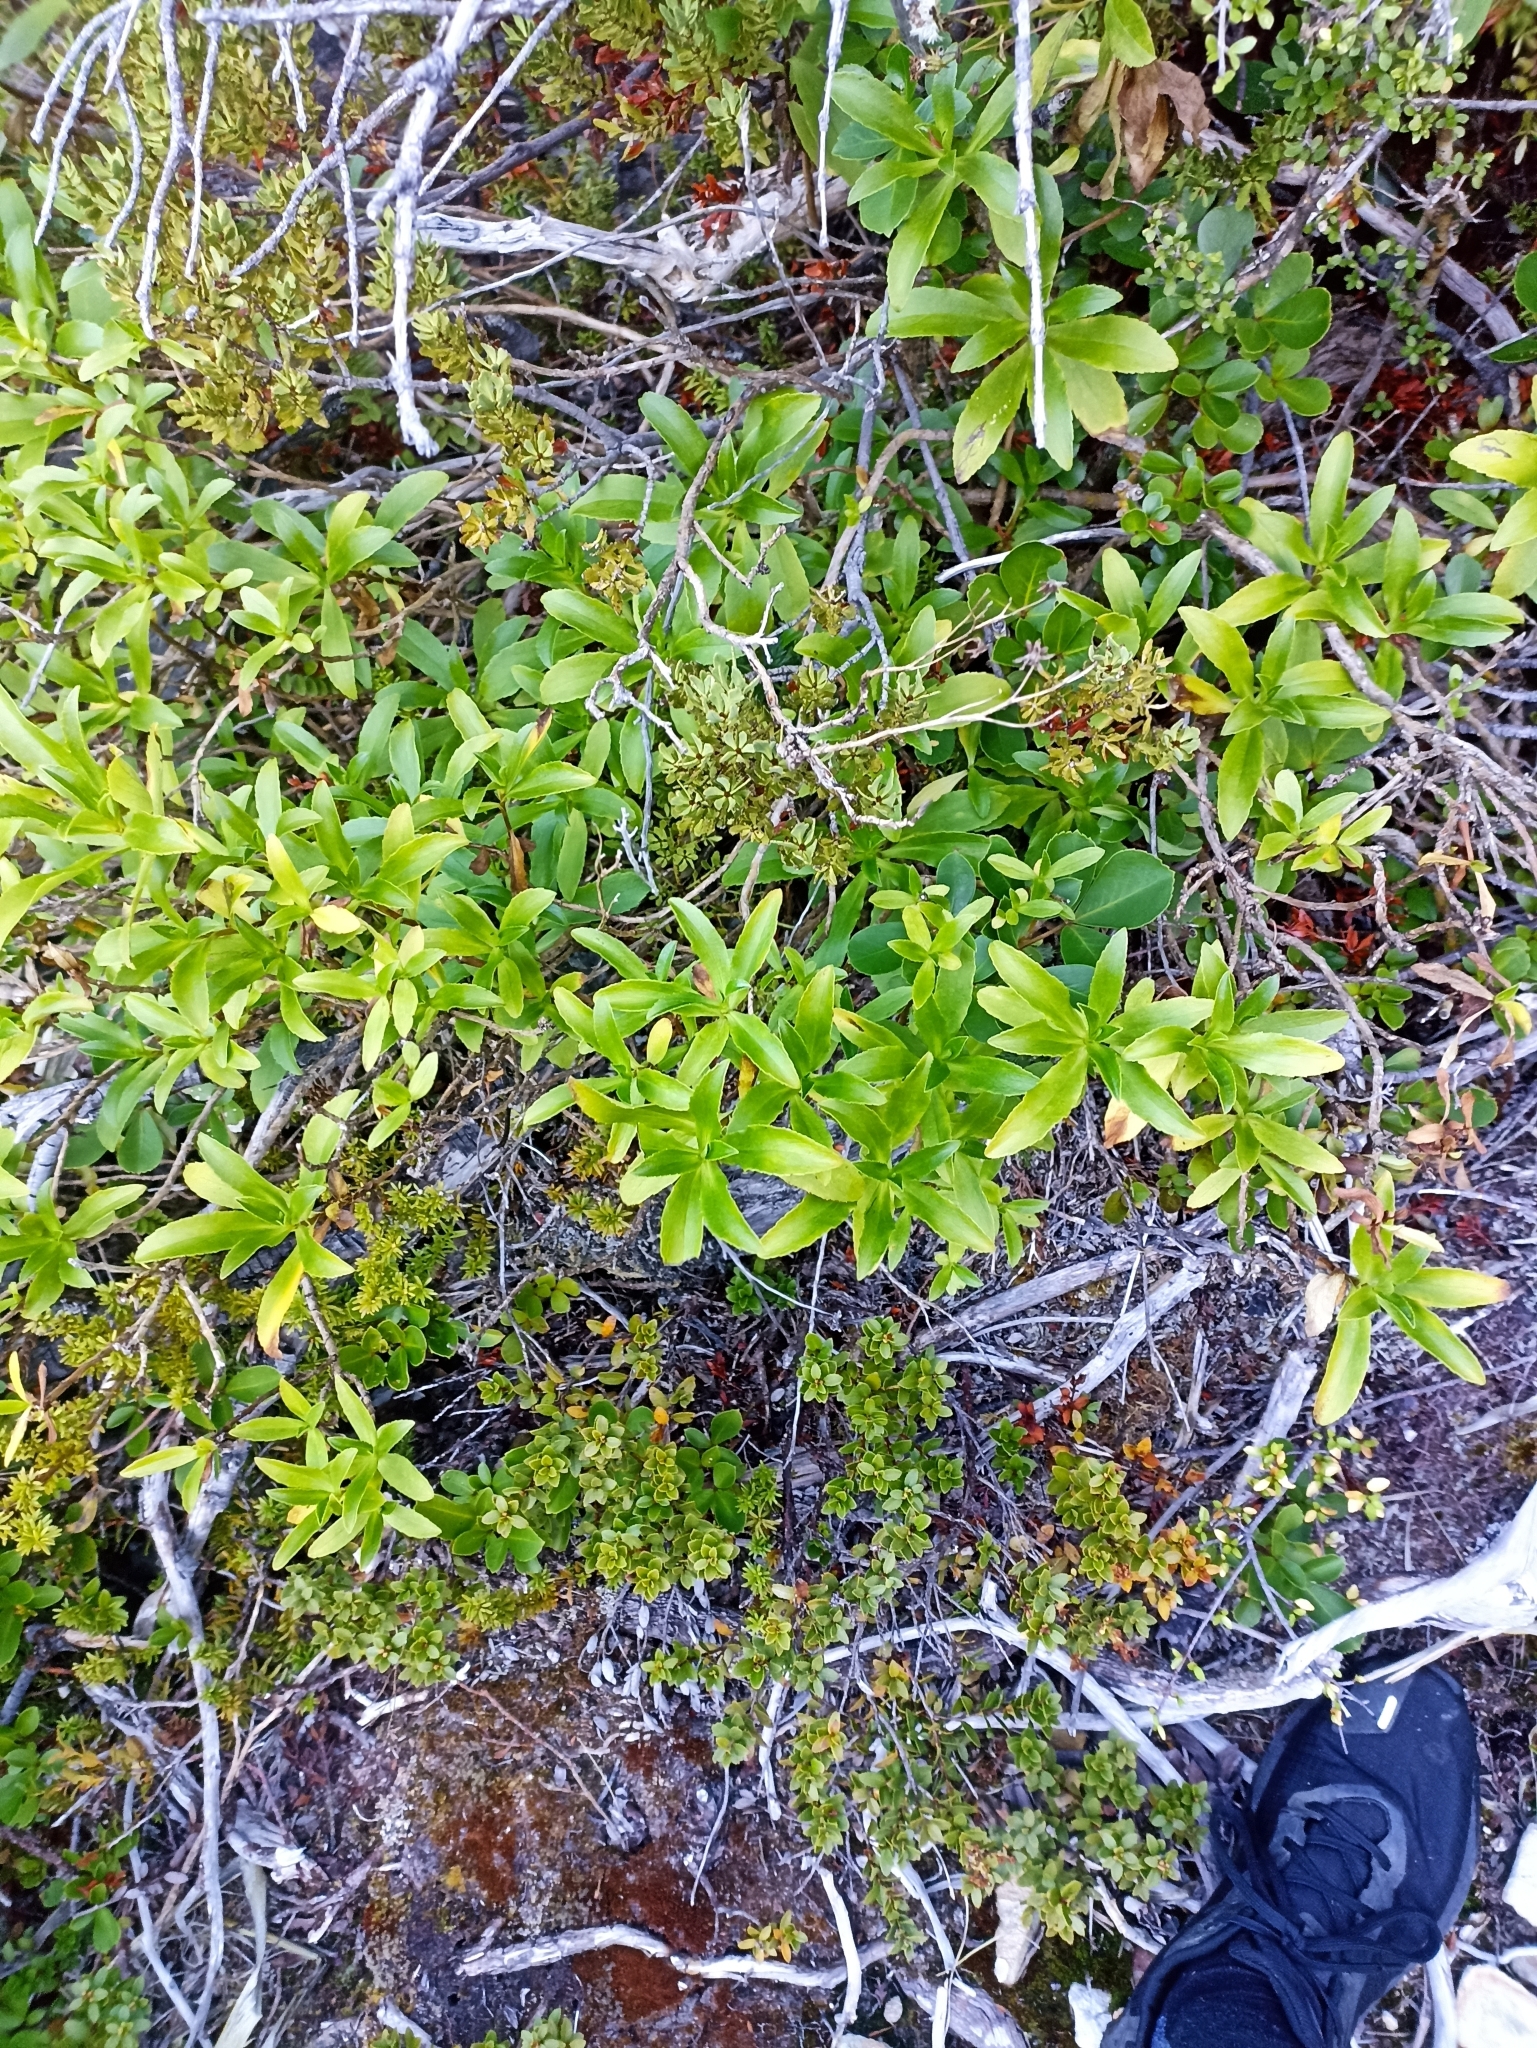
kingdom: Plantae
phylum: Tracheophyta
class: Magnoliopsida
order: Asterales
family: Asteraceae
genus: Traversia
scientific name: Traversia baccharoides
